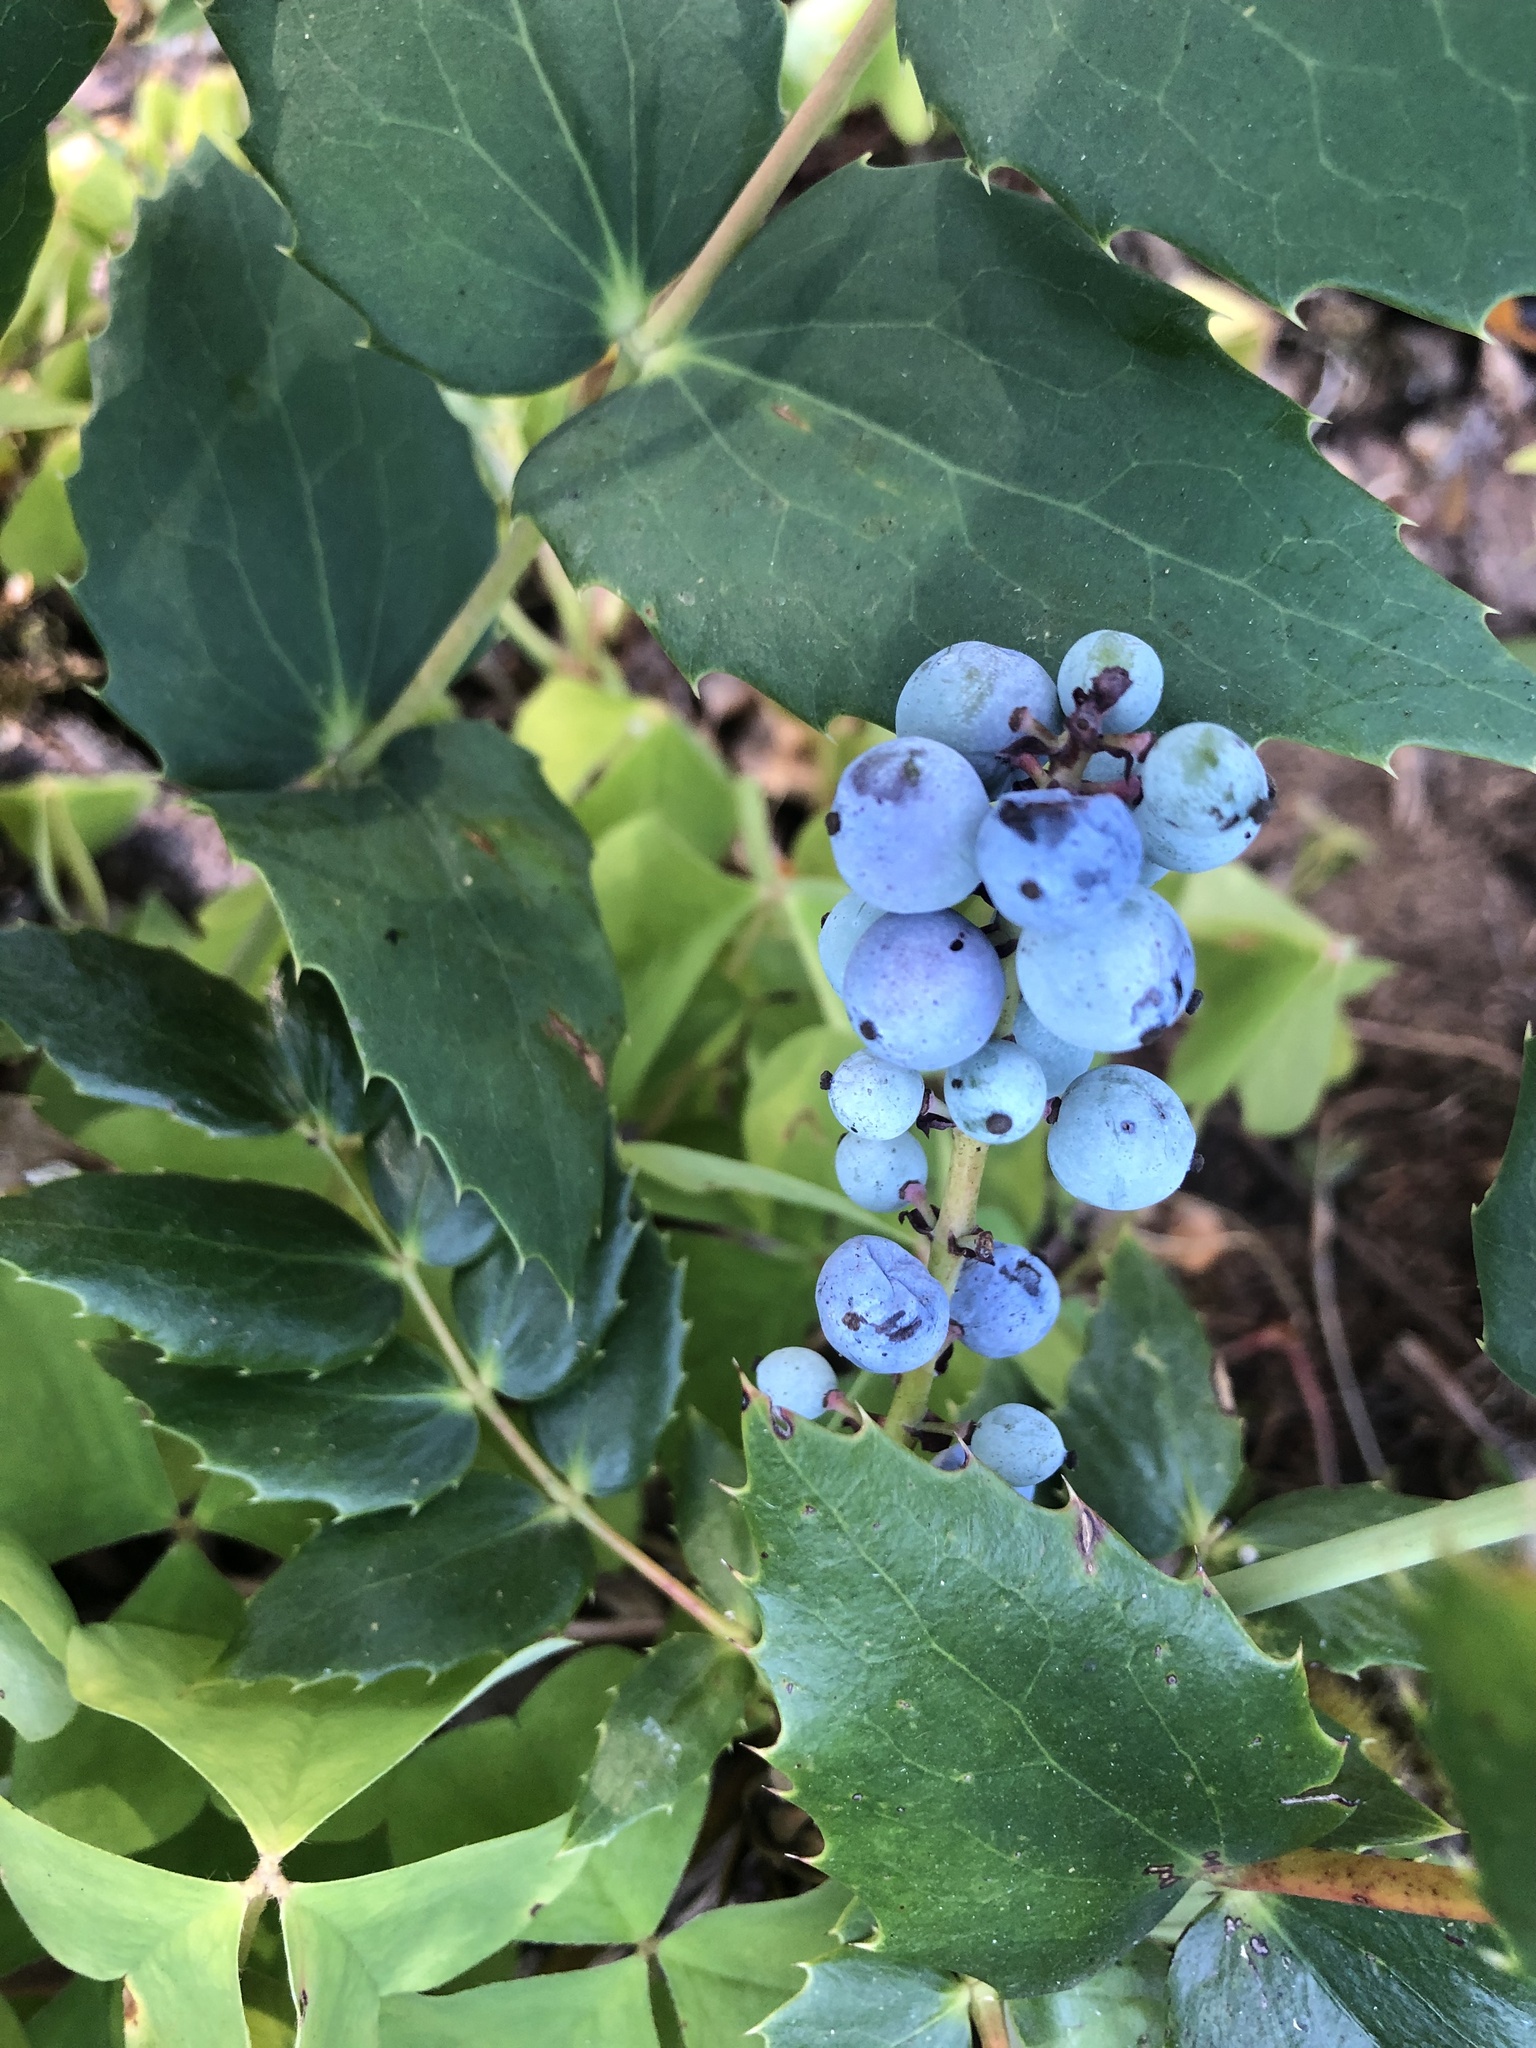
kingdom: Plantae
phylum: Tracheophyta
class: Magnoliopsida
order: Ranunculales
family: Berberidaceae
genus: Mahonia
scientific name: Mahonia nervosa
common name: Cascade oregon-grape
